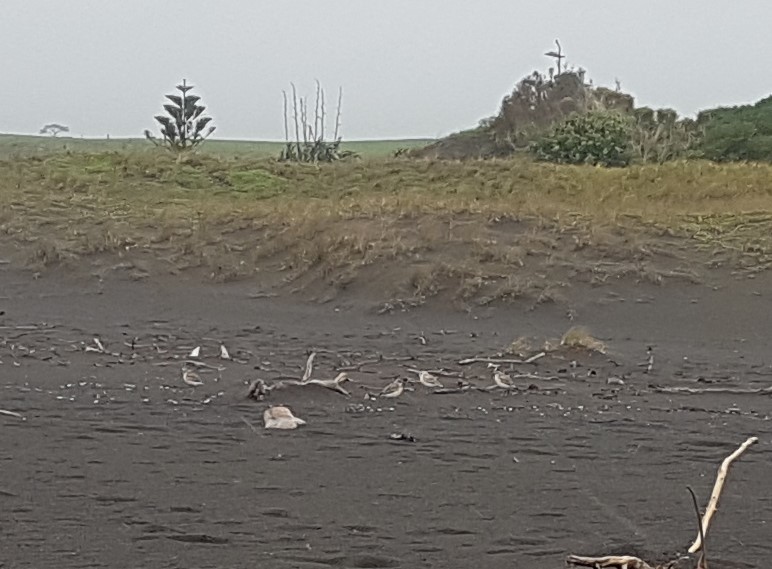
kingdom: Animalia
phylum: Chordata
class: Aves
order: Charadriiformes
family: Charadriidae
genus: Anarhynchus
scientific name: Anarhynchus
